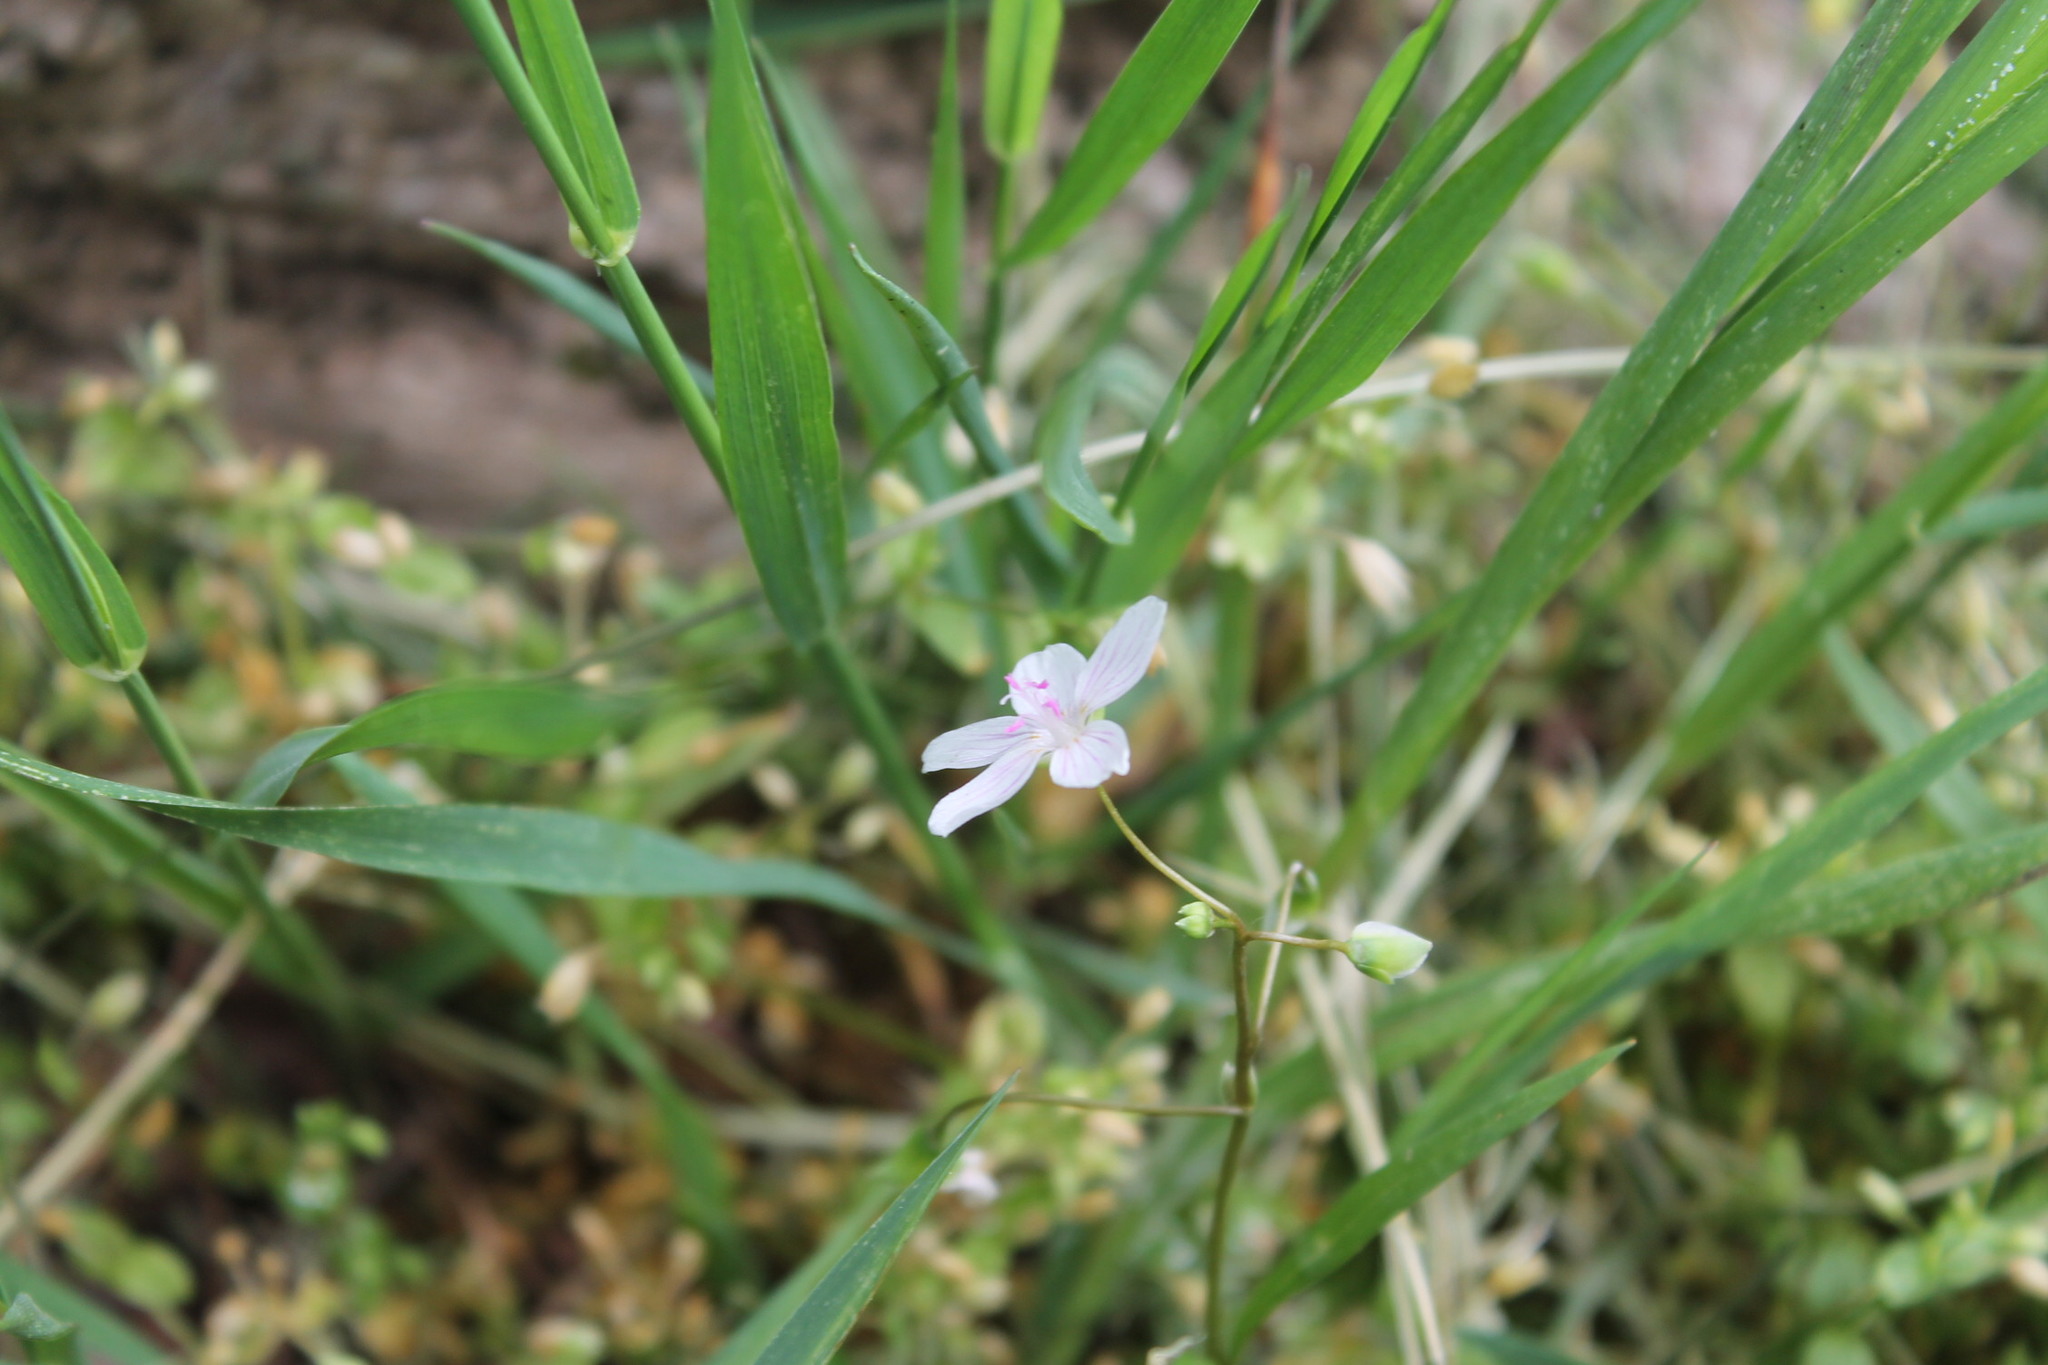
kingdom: Plantae
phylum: Tracheophyta
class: Magnoliopsida
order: Caryophyllales
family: Montiaceae
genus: Claytonia
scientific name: Claytonia virginica
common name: Virginia springbeauty
